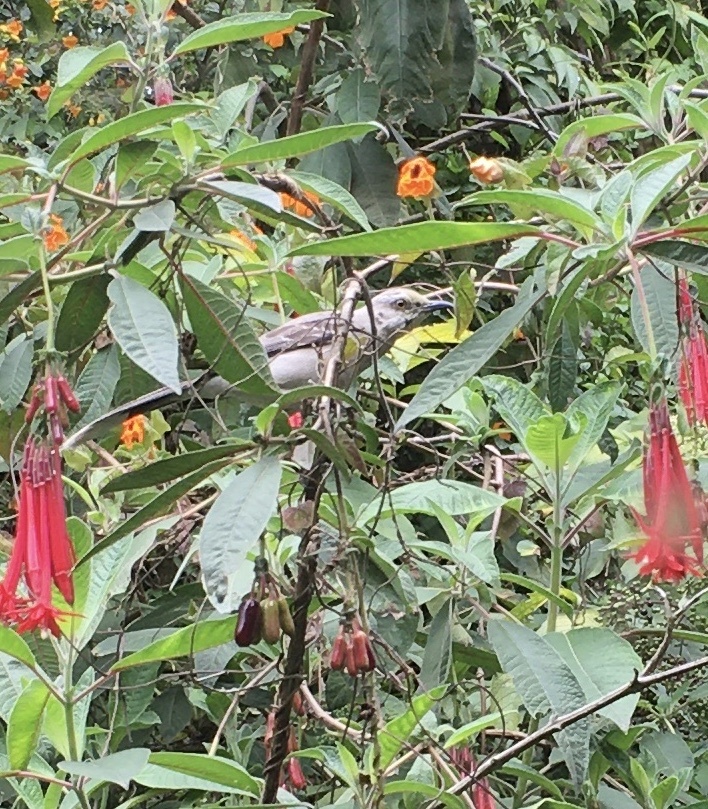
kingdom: Animalia
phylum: Chordata
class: Aves
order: Passeriformes
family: Mimidae
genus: Mimus
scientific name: Mimus gilvus
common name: Tropical mockingbird
